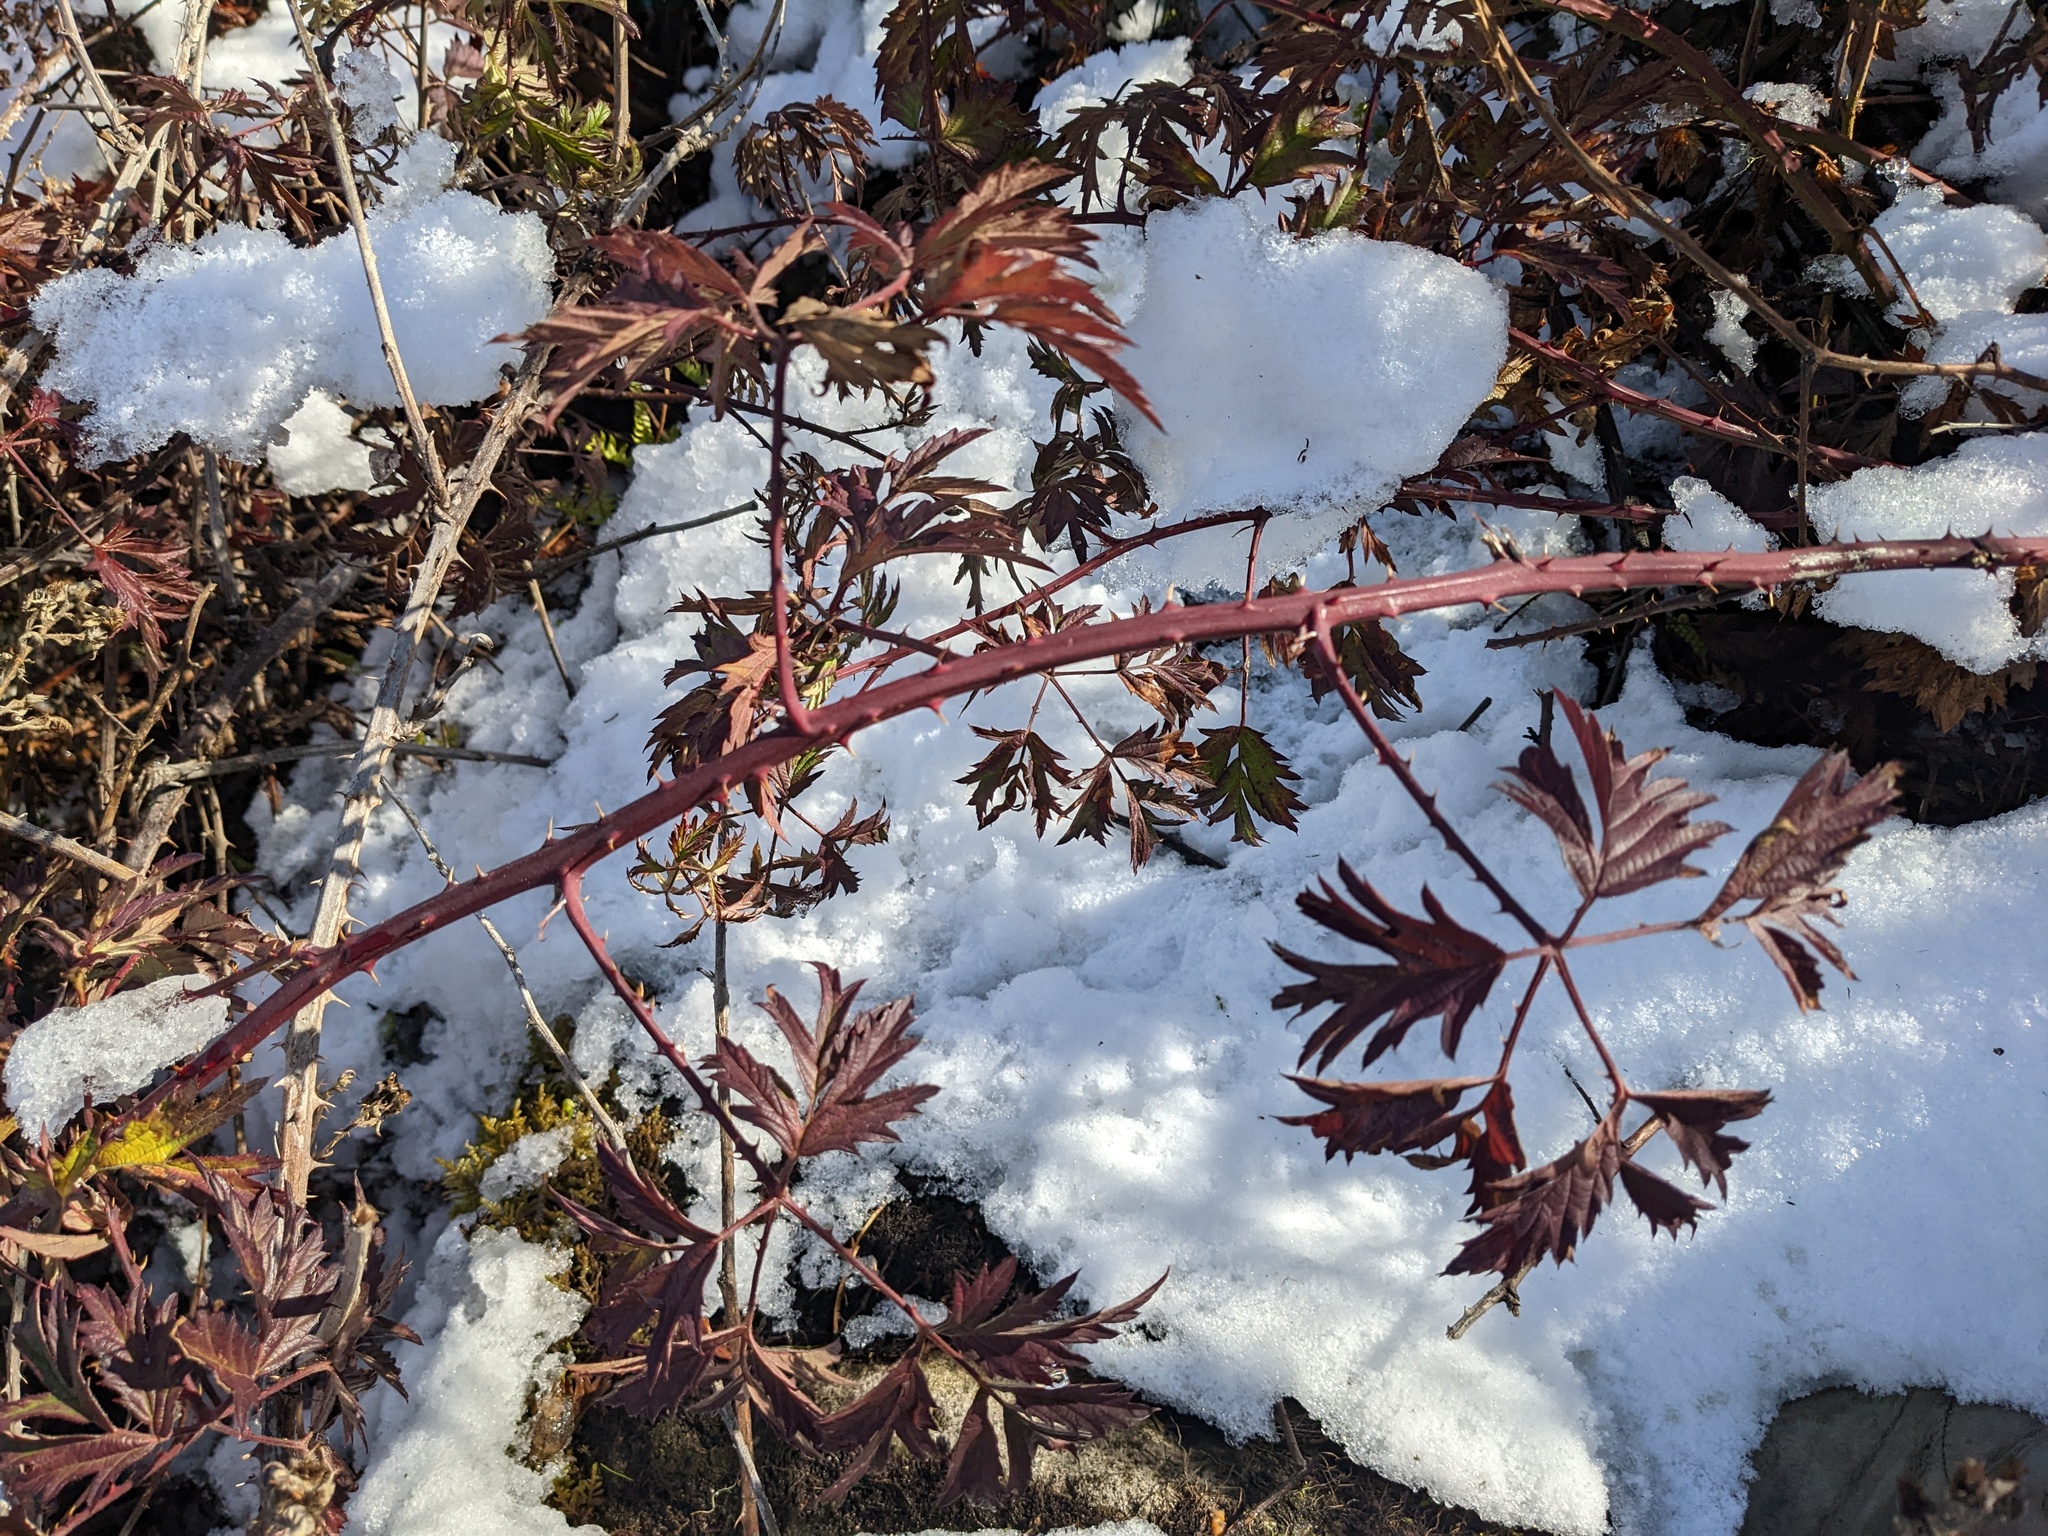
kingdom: Plantae
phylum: Tracheophyta
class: Magnoliopsida
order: Rosales
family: Rosaceae
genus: Rubus
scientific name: Rubus laciniatus
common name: Evergreen blackberry
